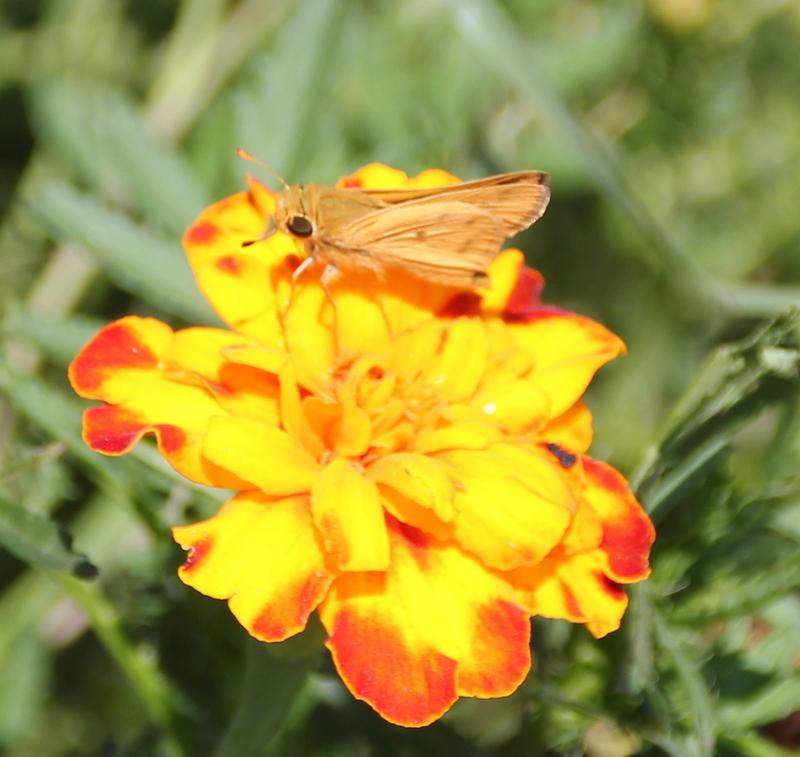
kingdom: Animalia
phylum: Arthropoda
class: Insecta
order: Lepidoptera
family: Hesperiidae
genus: Hylephila
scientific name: Hylephila phyleus
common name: Fiery skipper
